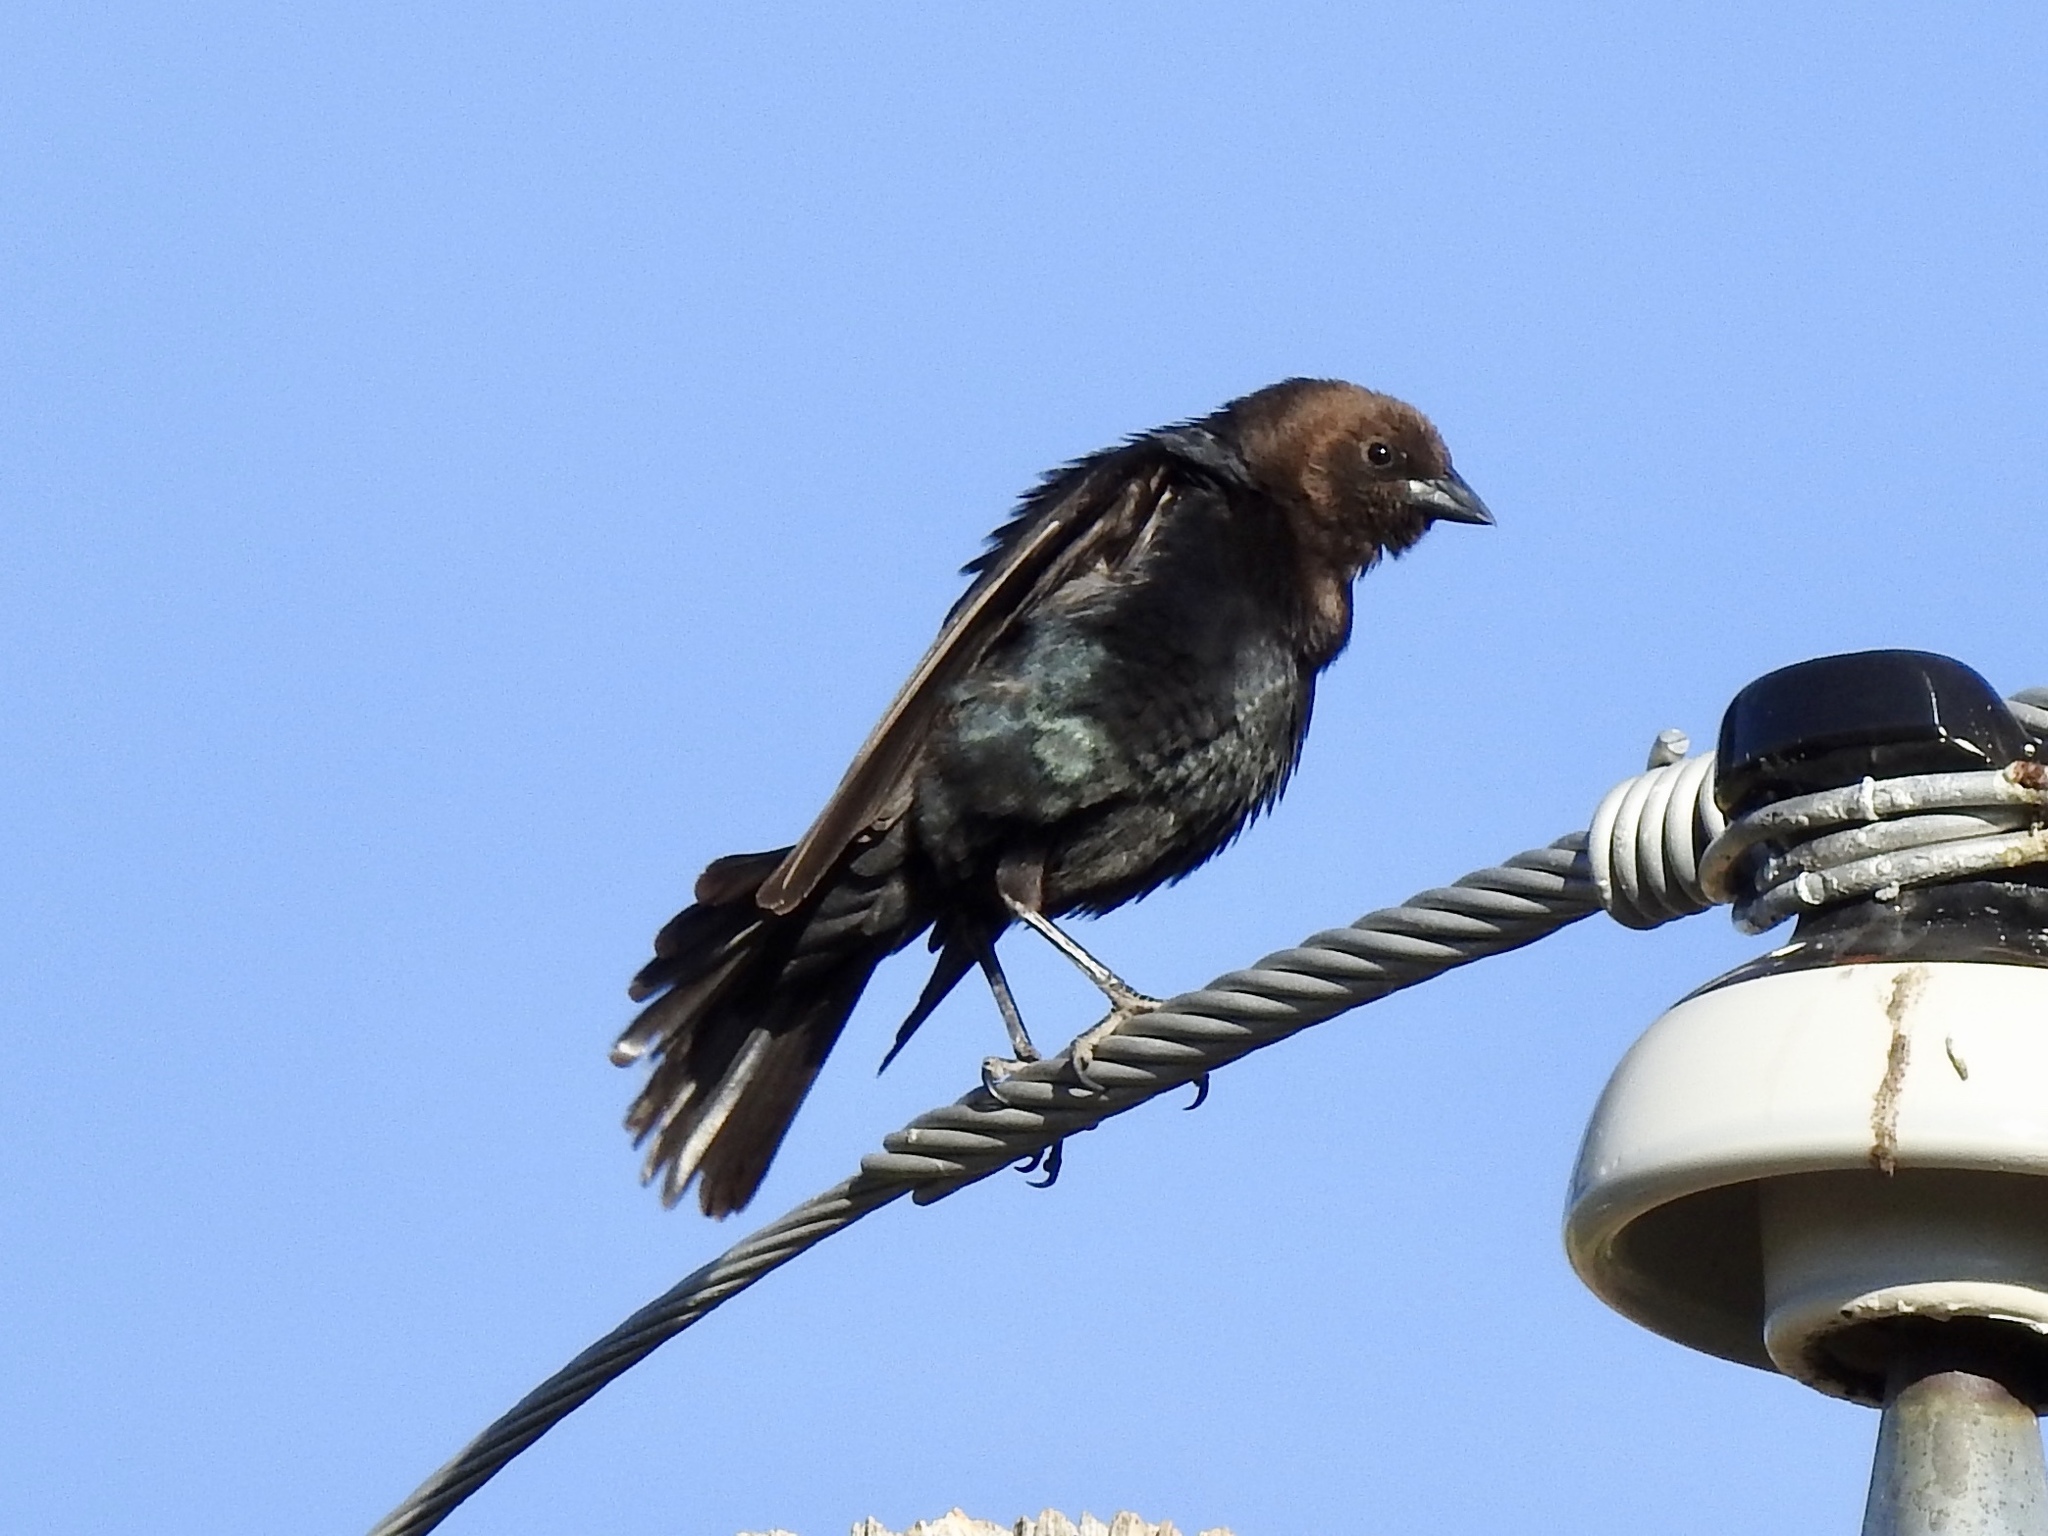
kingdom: Animalia
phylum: Chordata
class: Aves
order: Passeriformes
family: Icteridae
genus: Molothrus
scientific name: Molothrus ater
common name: Brown-headed cowbird
